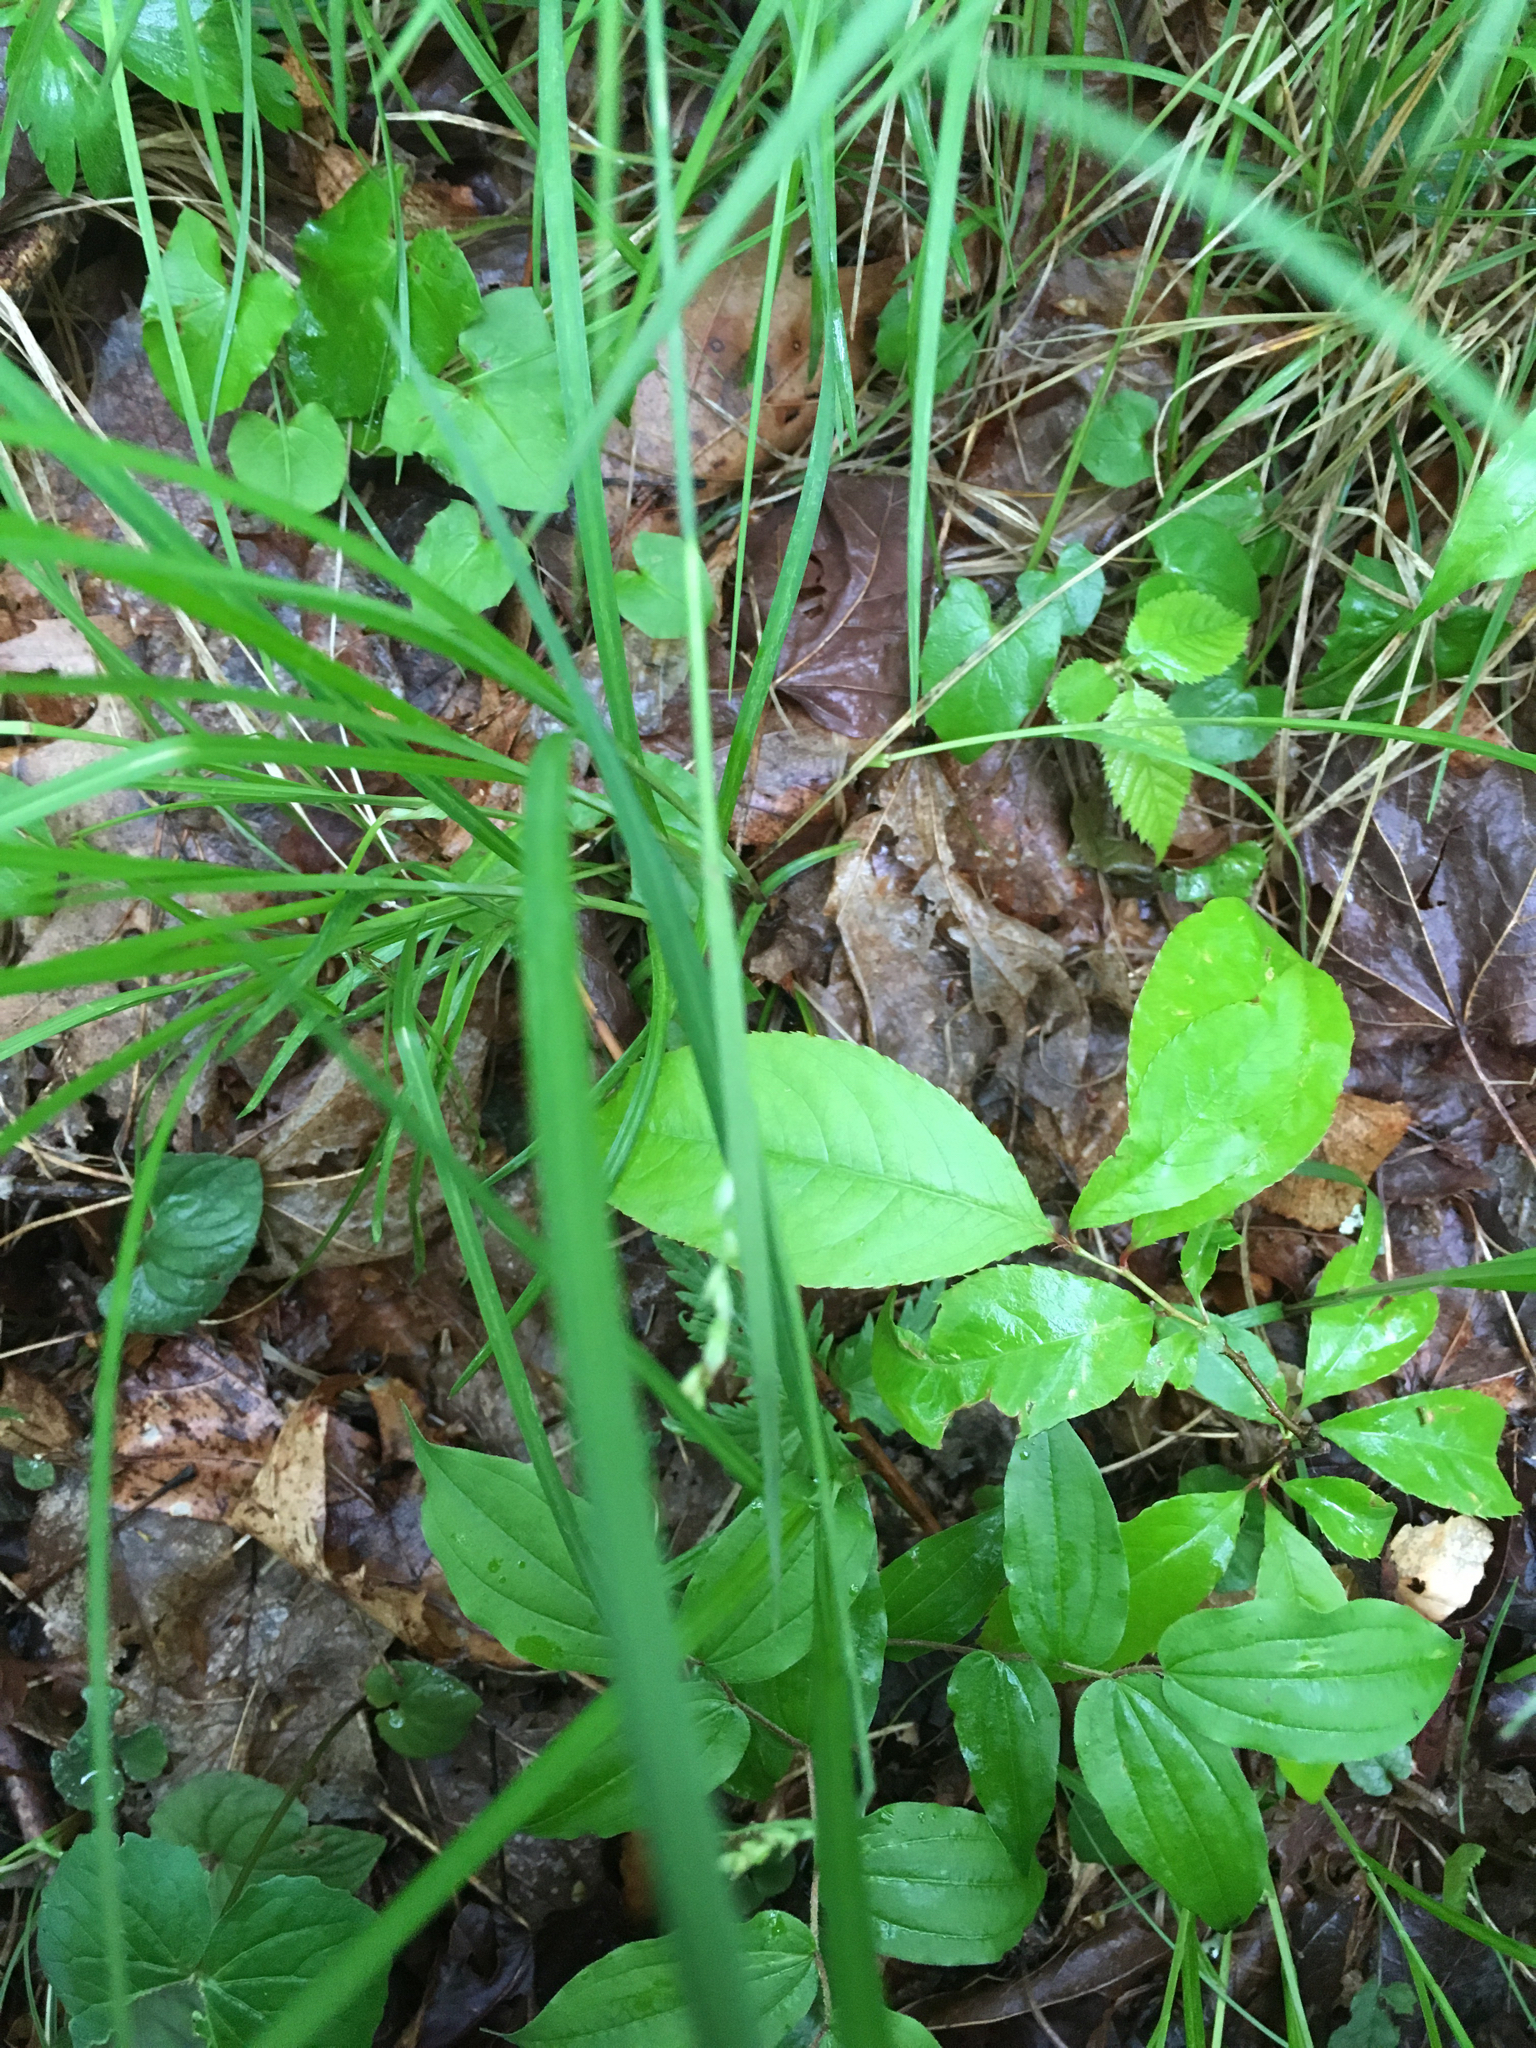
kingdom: Plantae
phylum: Tracheophyta
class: Liliopsida
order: Poales
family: Cyperaceae
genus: Carex
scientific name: Carex woodii
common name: Wood's sedge
